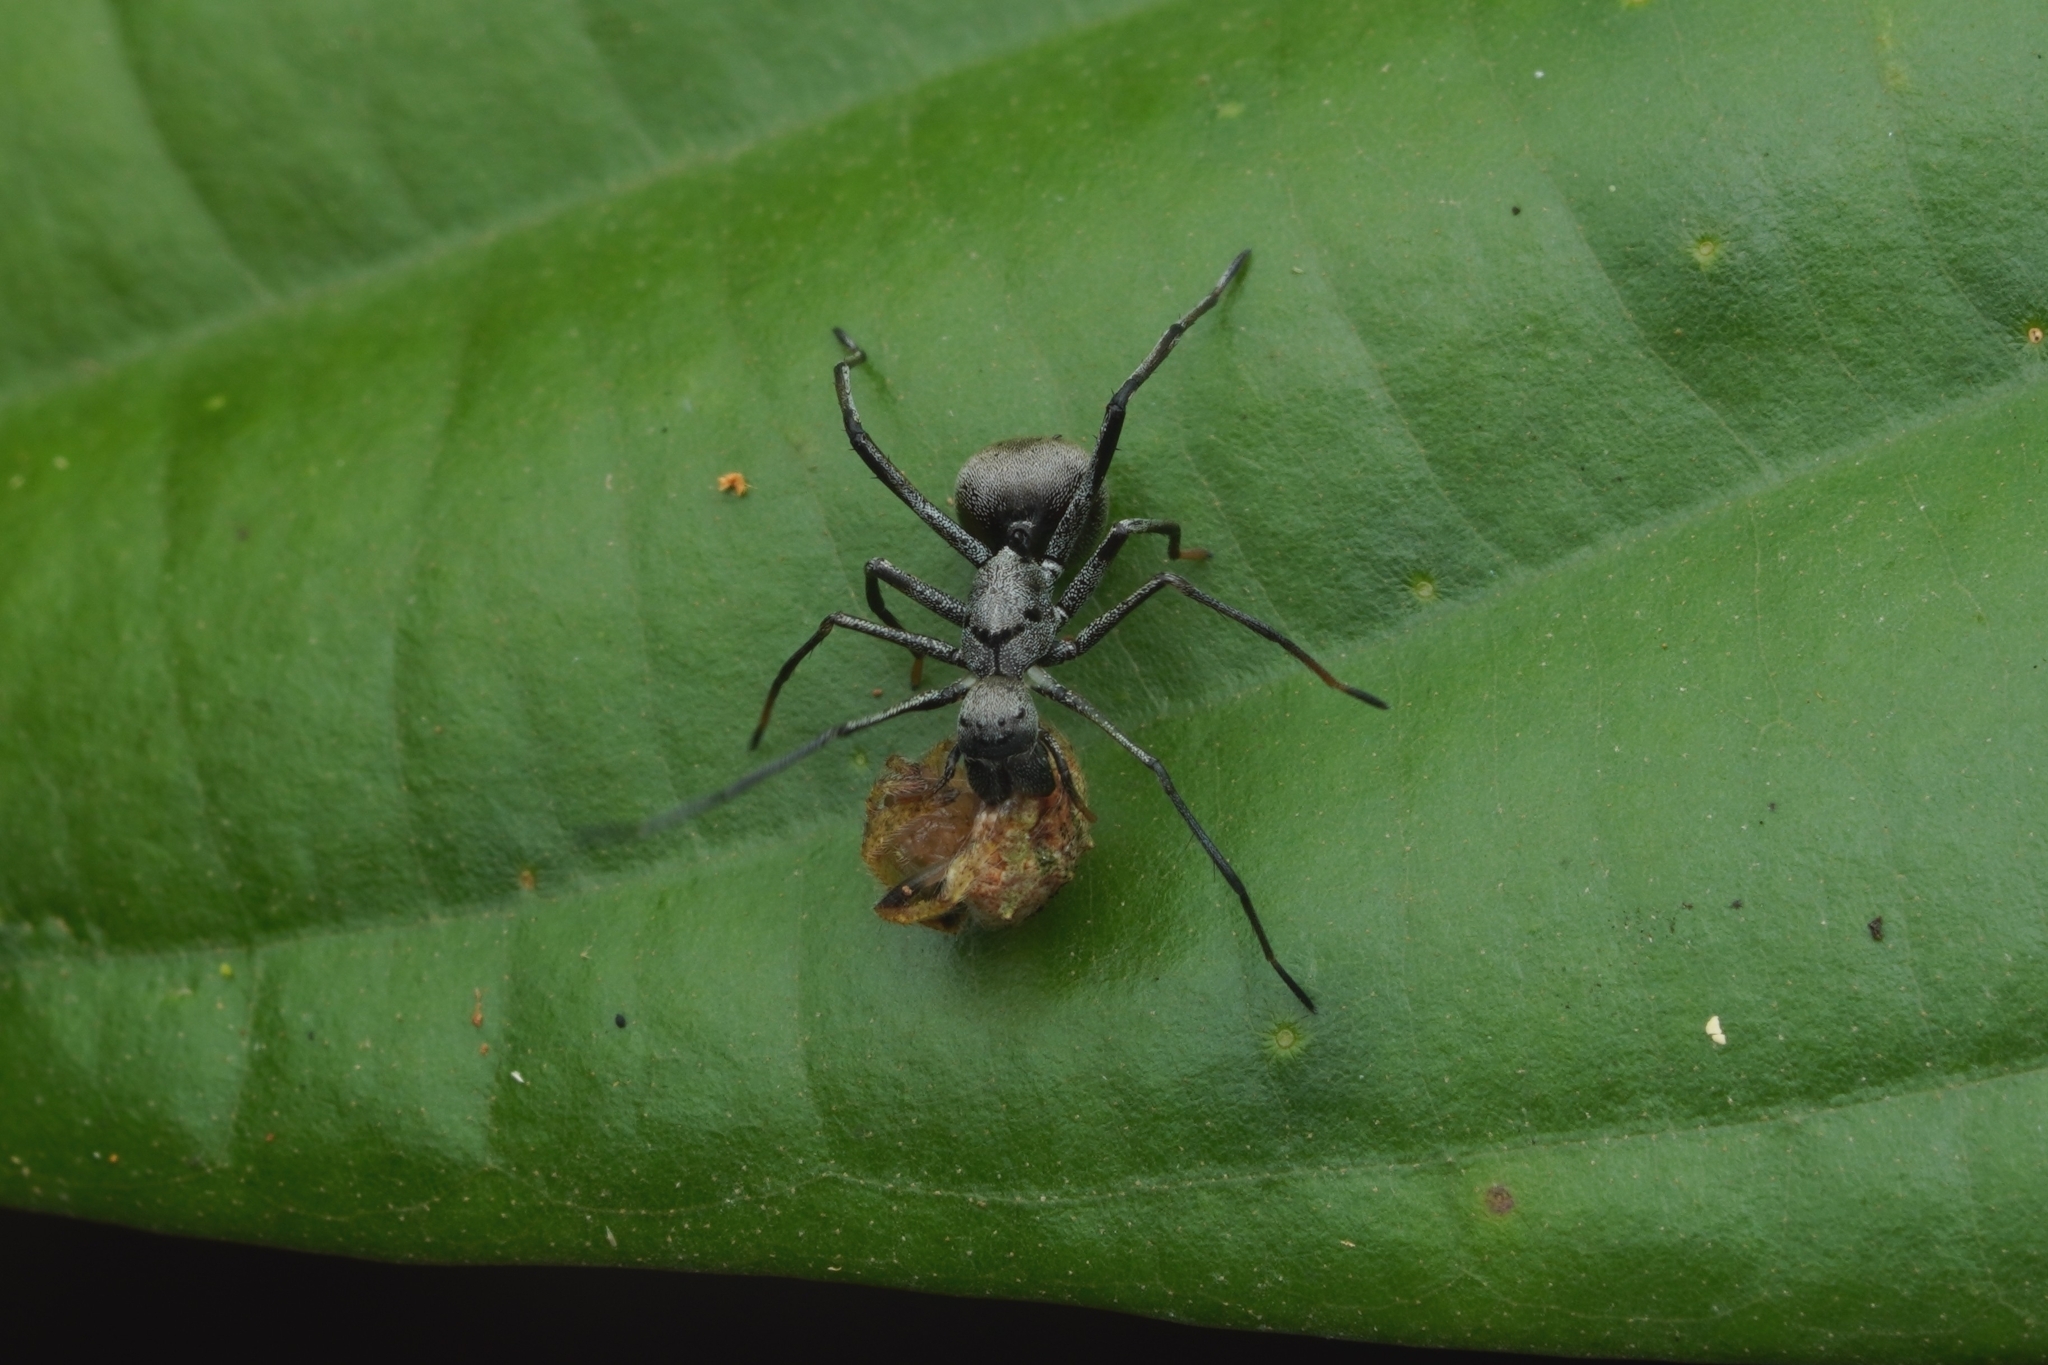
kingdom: Animalia
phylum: Arthropoda
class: Arachnida
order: Araneae
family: Corinnidae
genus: Sphecotypus
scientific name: Sphecotypus borneensis
